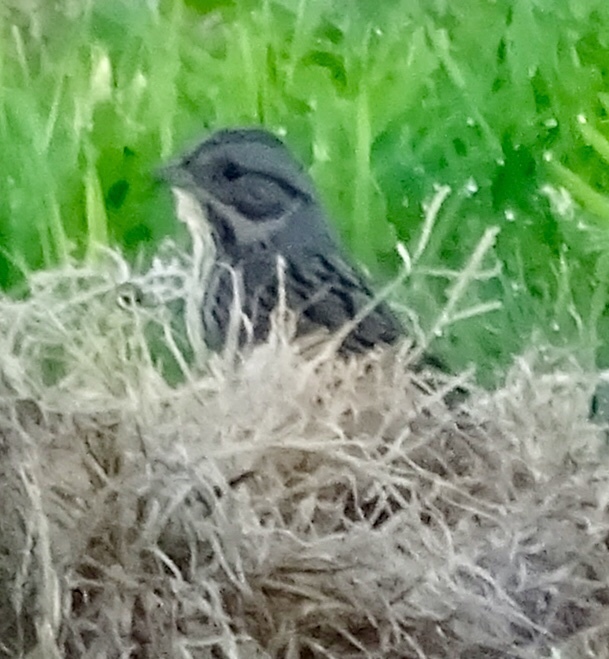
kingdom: Animalia
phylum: Chordata
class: Aves
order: Passeriformes
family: Passerellidae
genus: Melospiza
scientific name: Melospiza lincolnii
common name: Lincoln's sparrow
